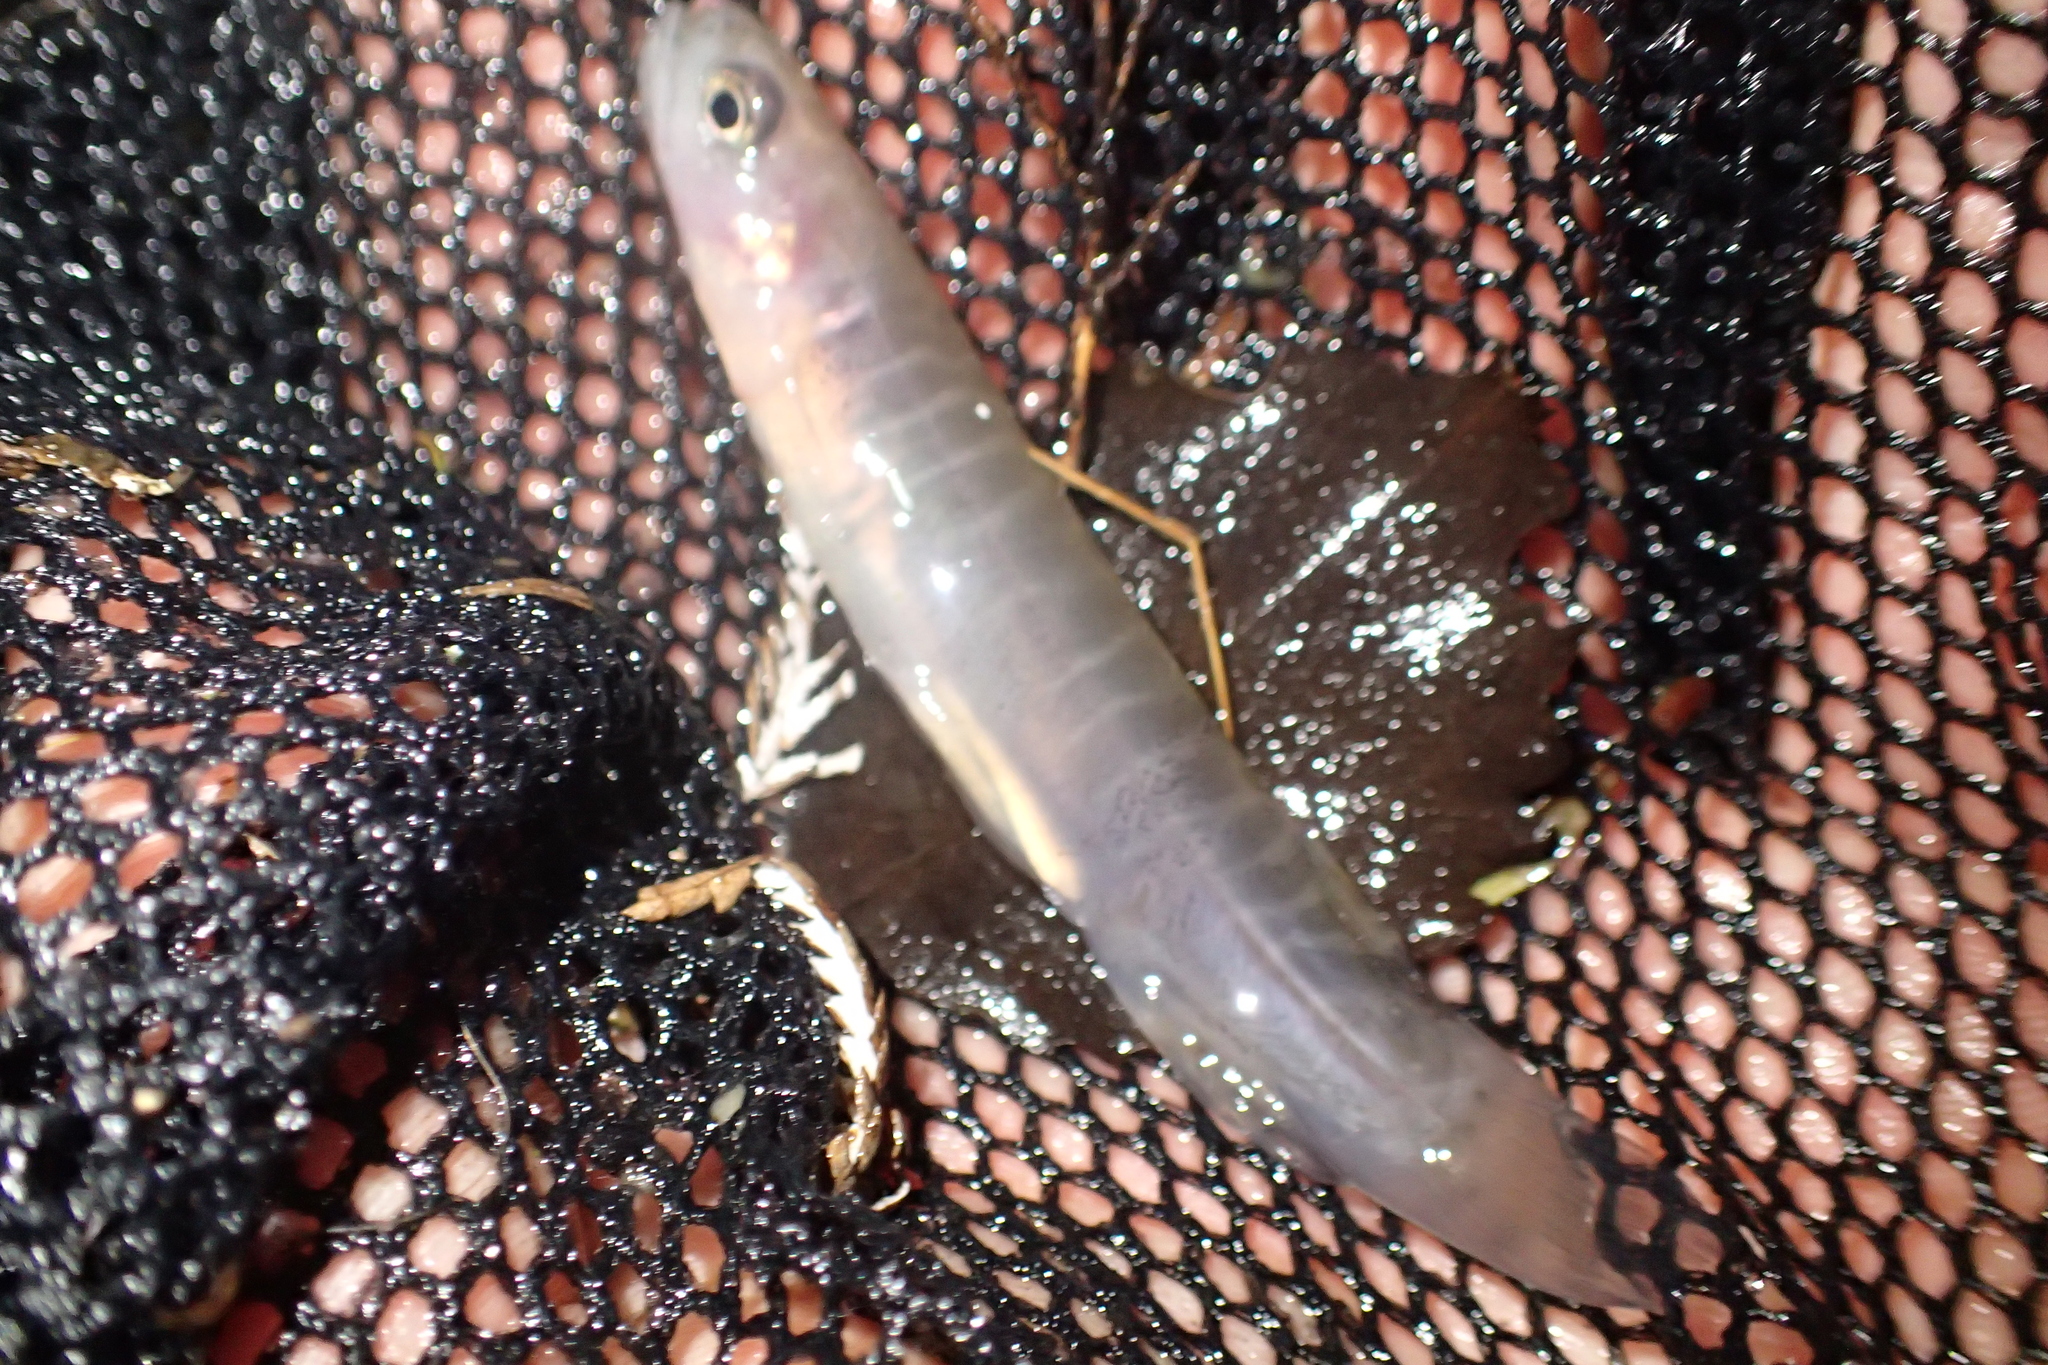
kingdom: Animalia
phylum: Chordata
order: Osmeriformes
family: Galaxiidae
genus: Galaxias
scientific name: Galaxias fasciatus
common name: Banded kokopu
